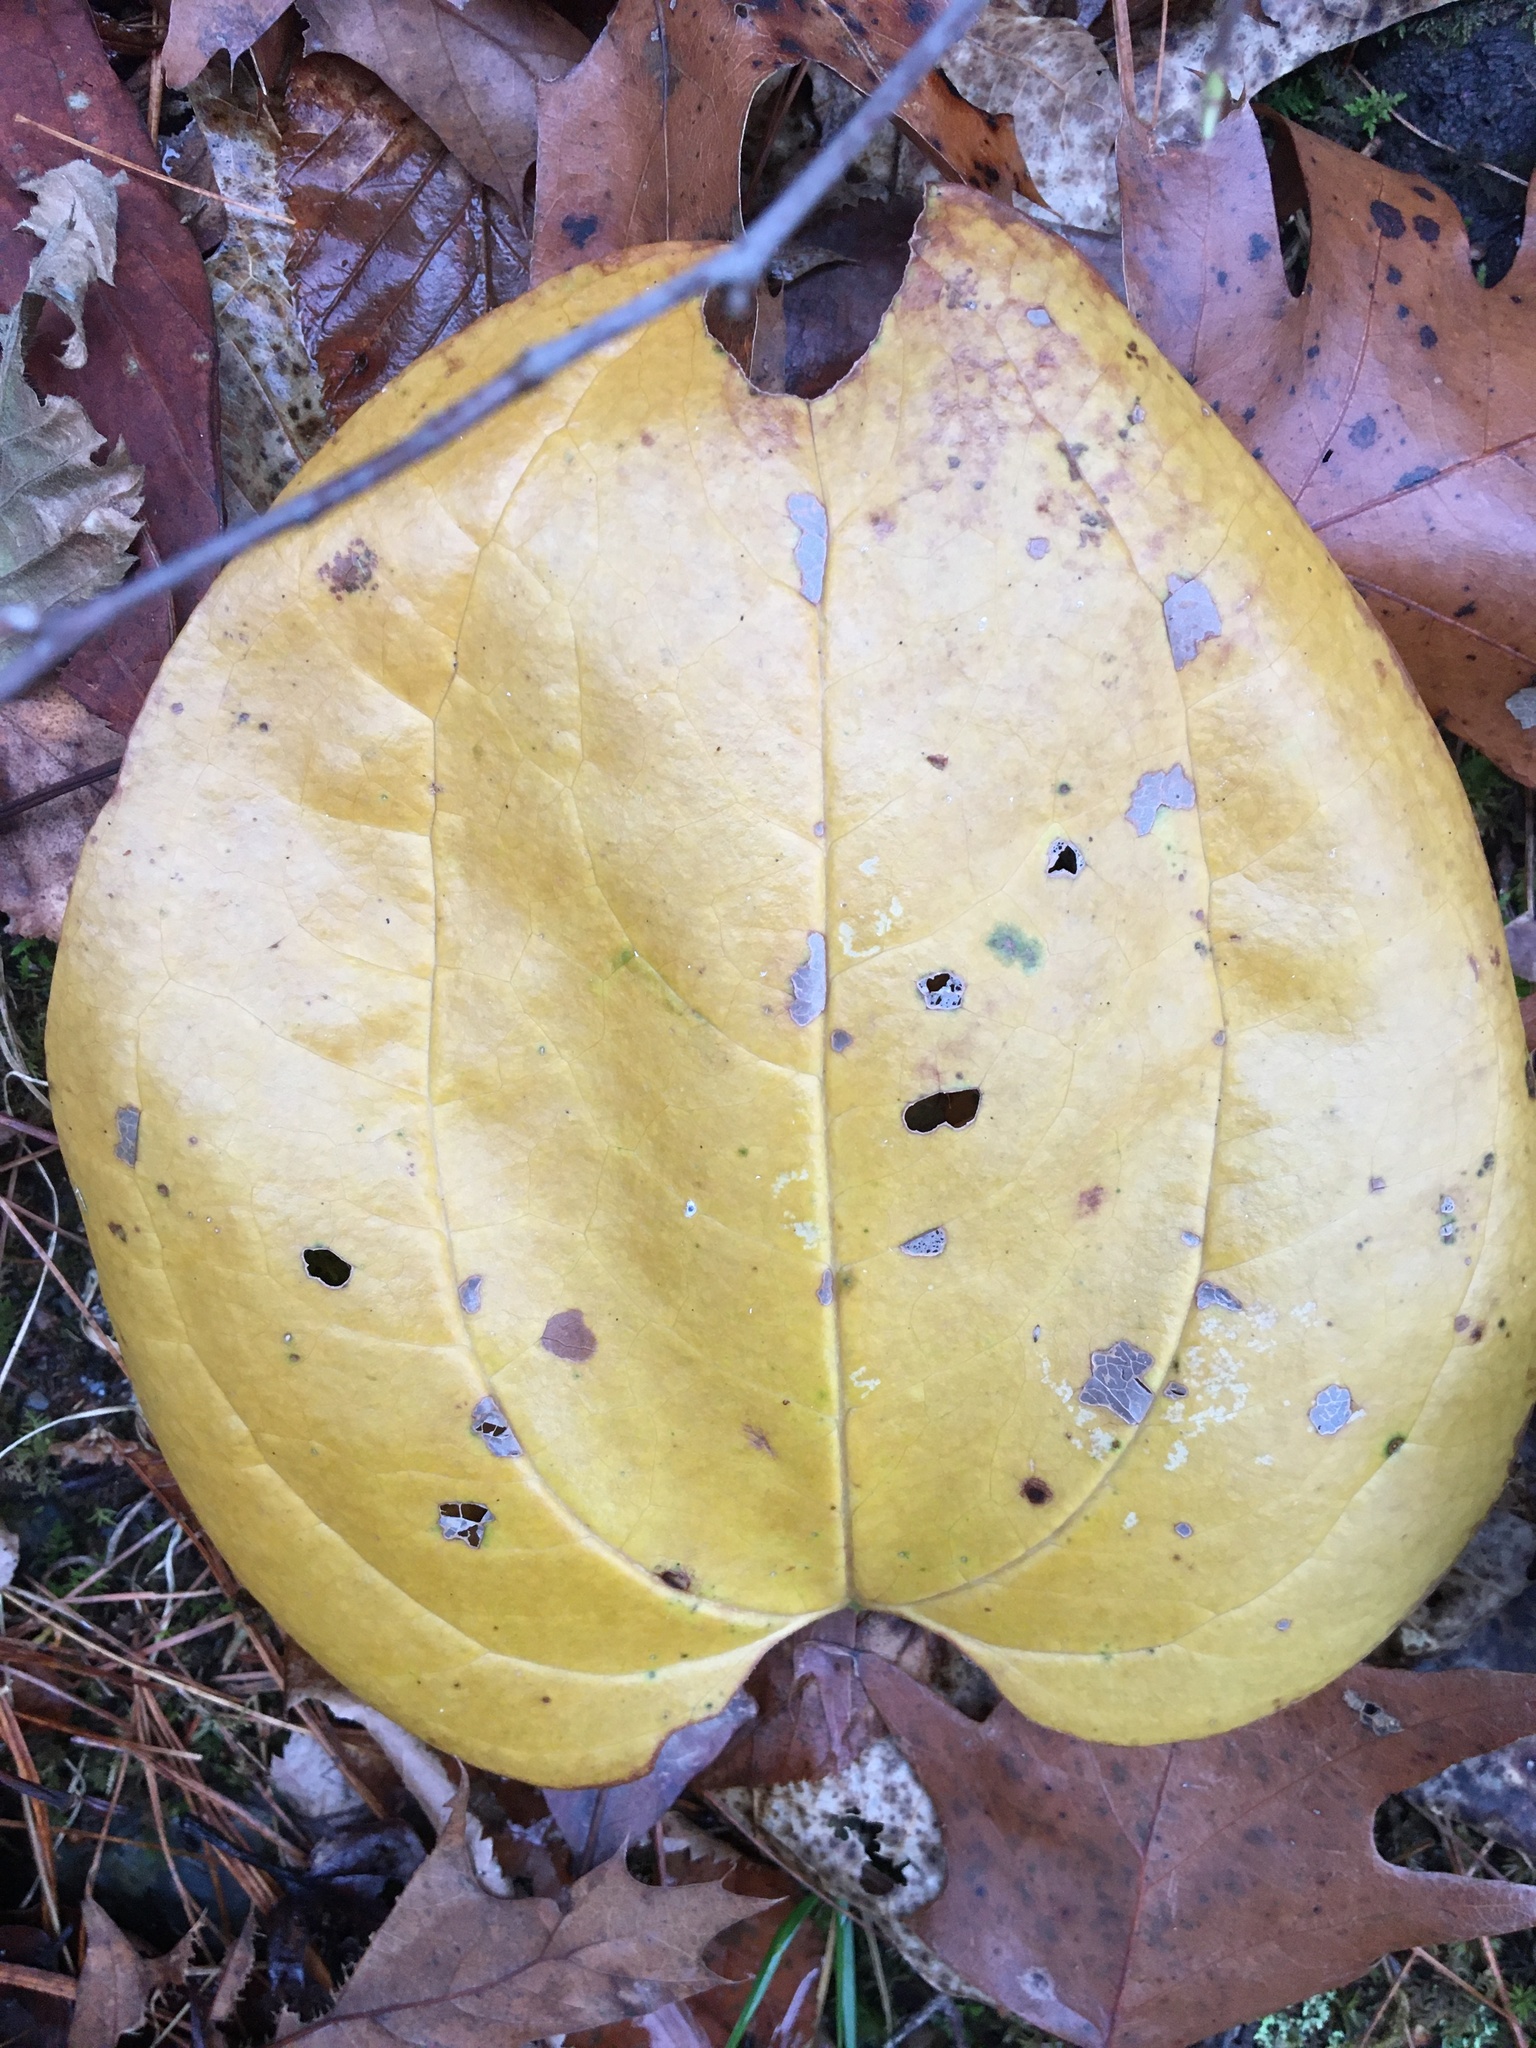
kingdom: Plantae
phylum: Tracheophyta
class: Liliopsida
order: Liliales
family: Smilacaceae
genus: Smilax
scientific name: Smilax rotundifolia
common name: Bullbriar
